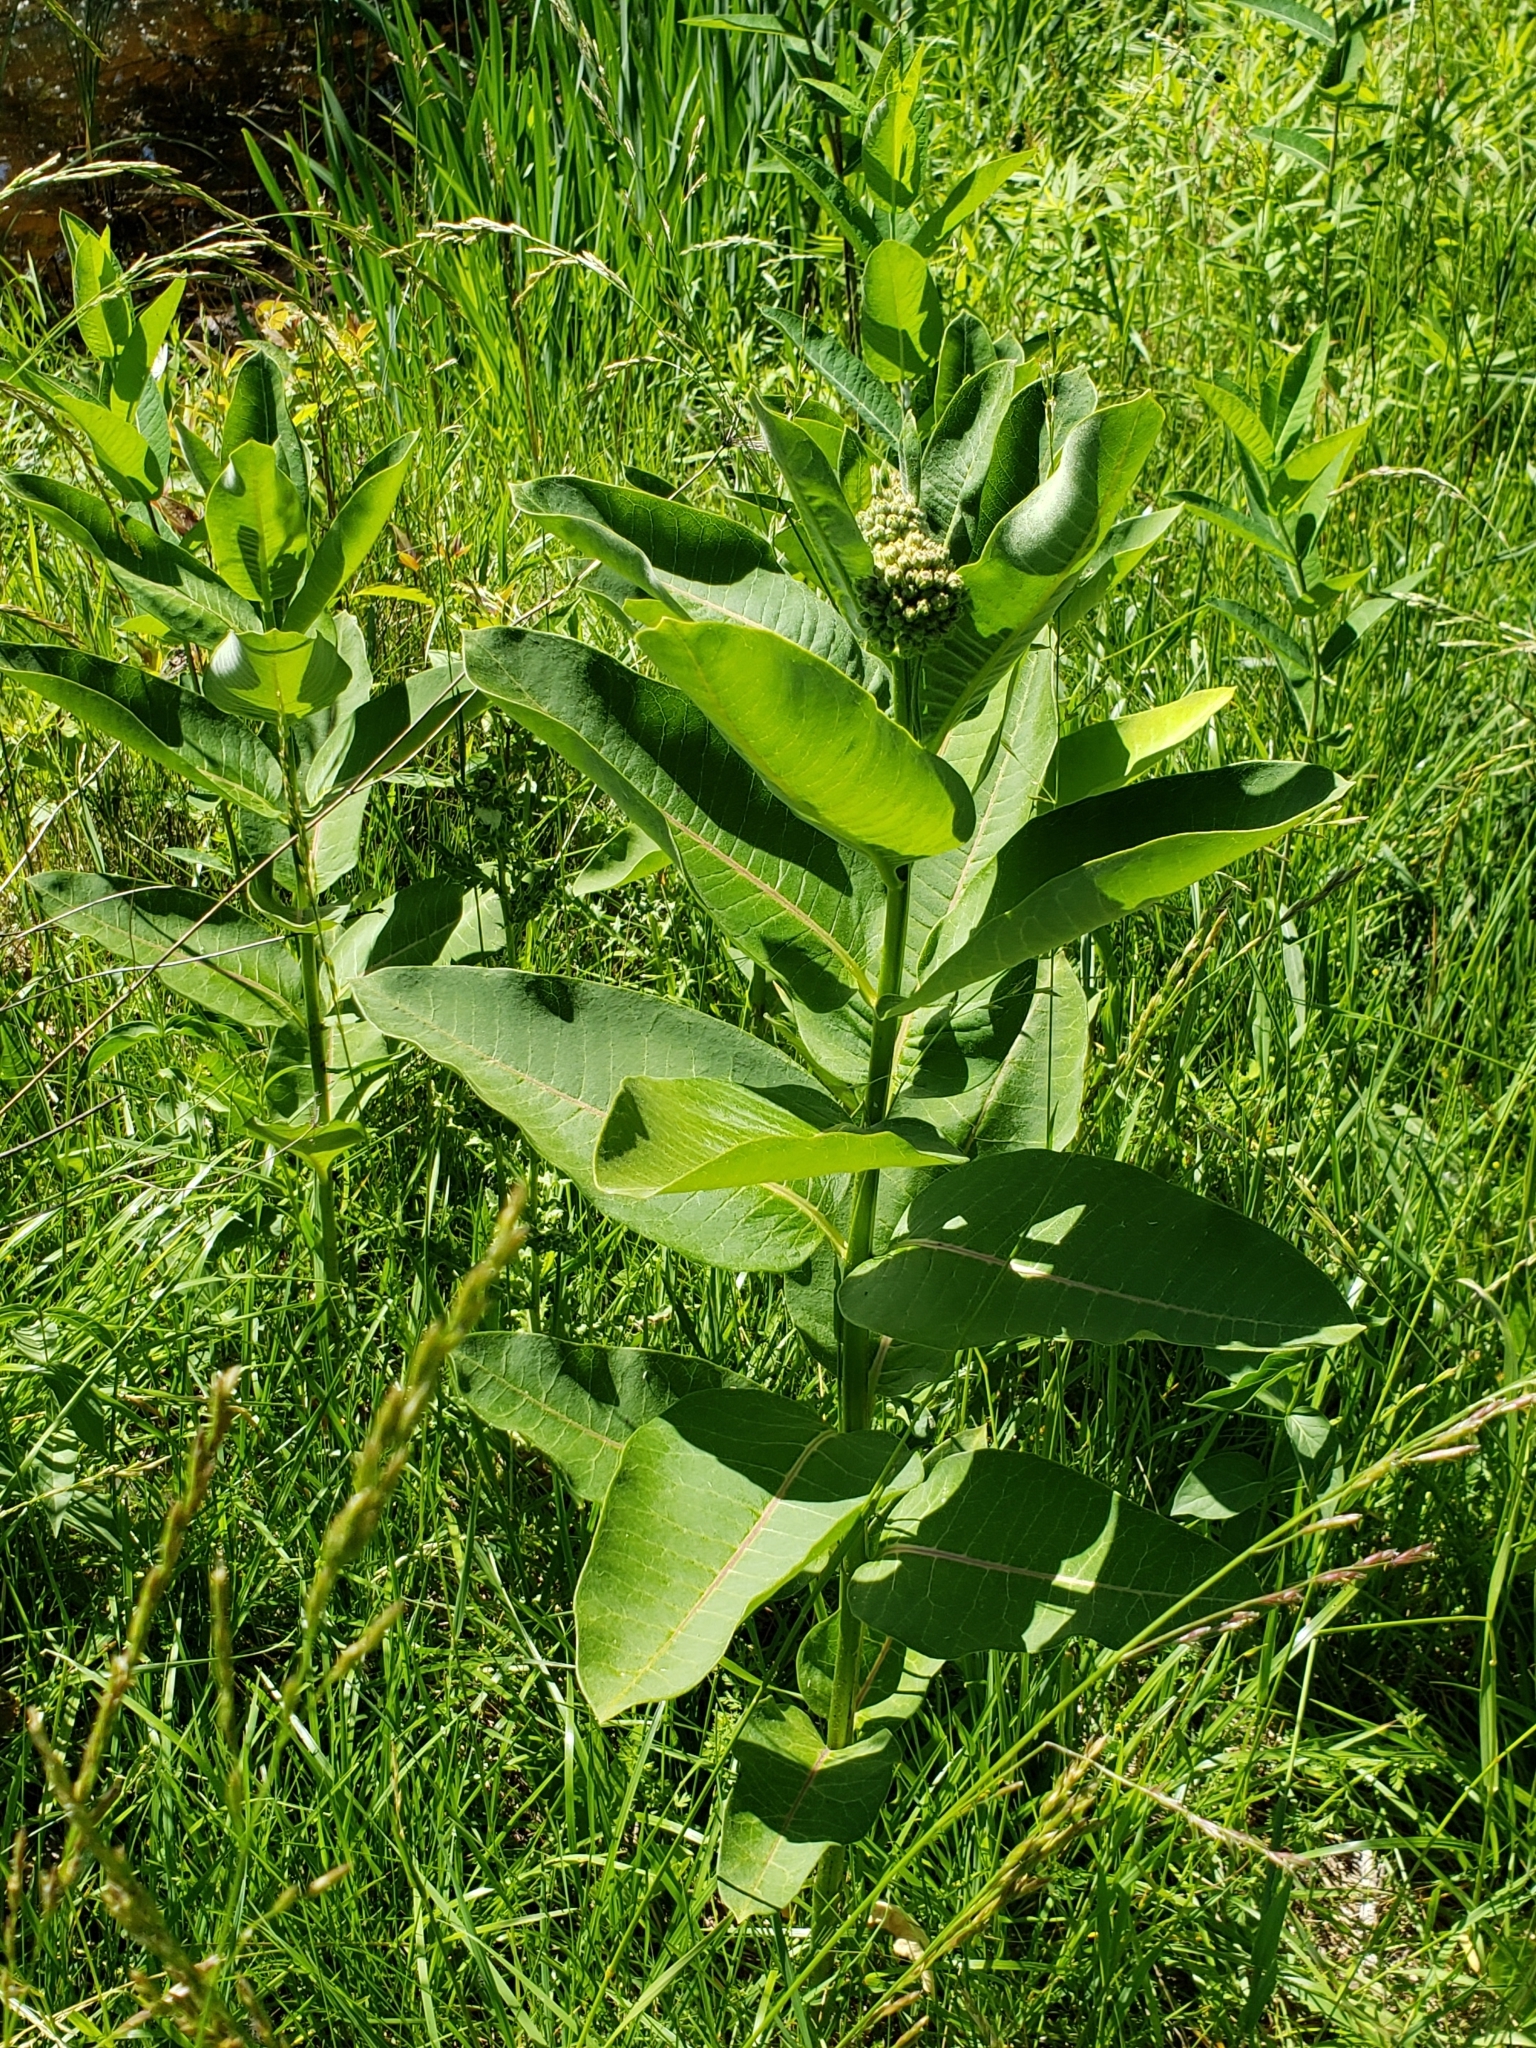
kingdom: Plantae
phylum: Tracheophyta
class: Magnoliopsida
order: Gentianales
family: Apocynaceae
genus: Asclepias
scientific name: Asclepias syriaca
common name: Common milkweed
